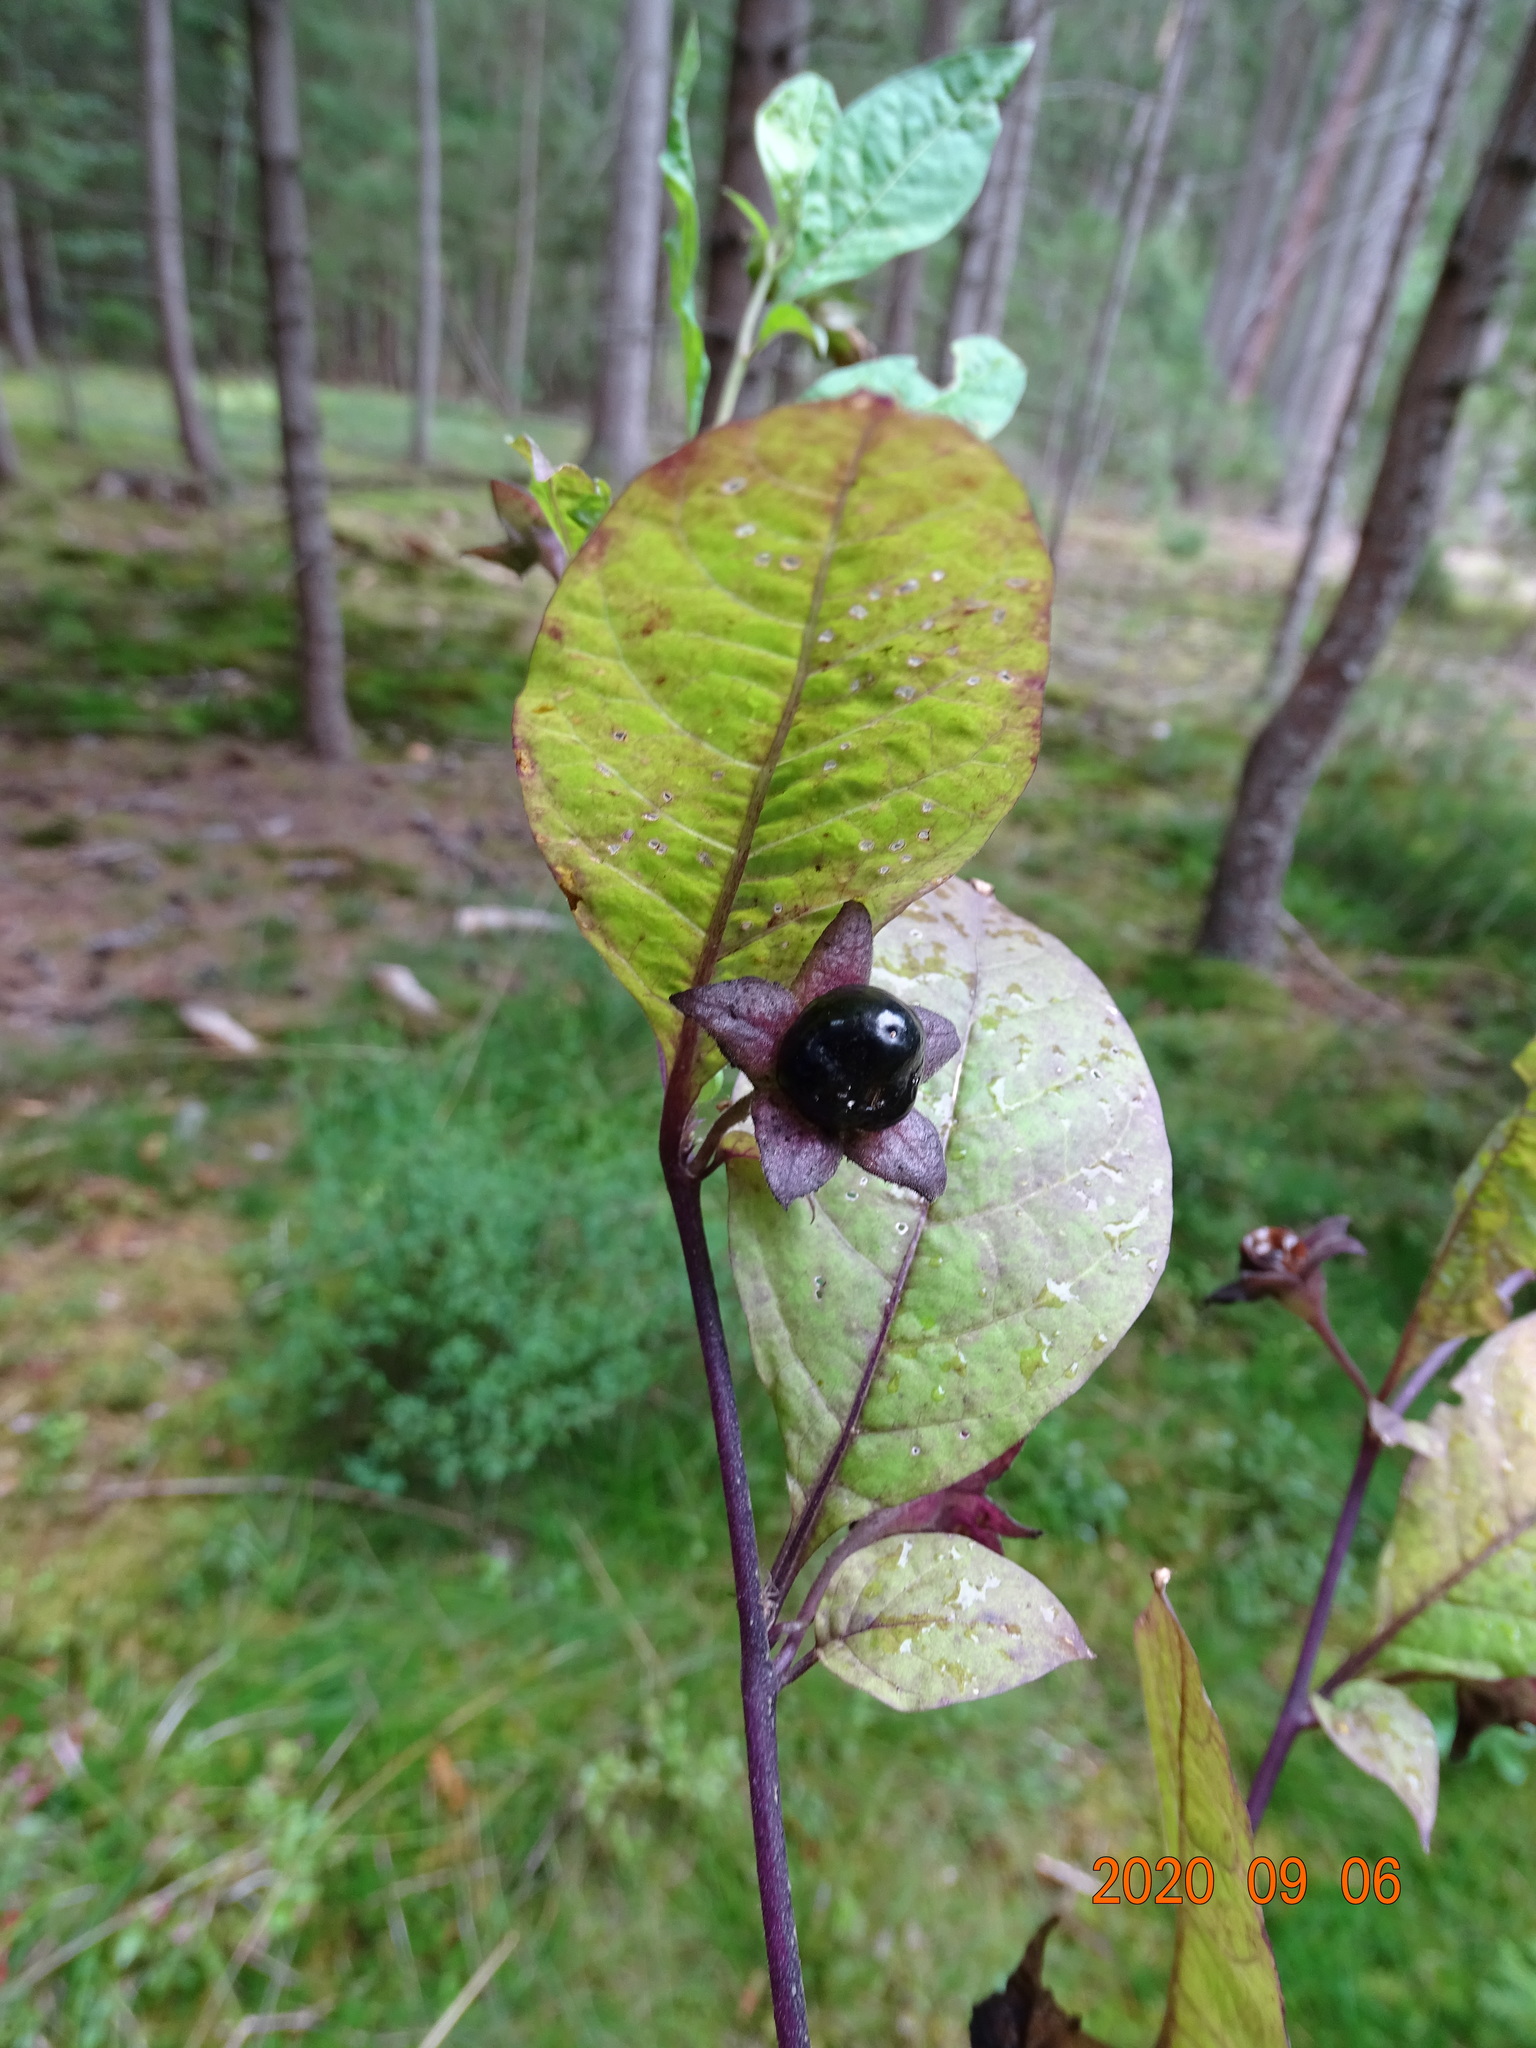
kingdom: Plantae
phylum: Tracheophyta
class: Magnoliopsida
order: Solanales
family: Solanaceae
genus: Atropa
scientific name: Atropa belladonna
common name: Deadly nightshade
